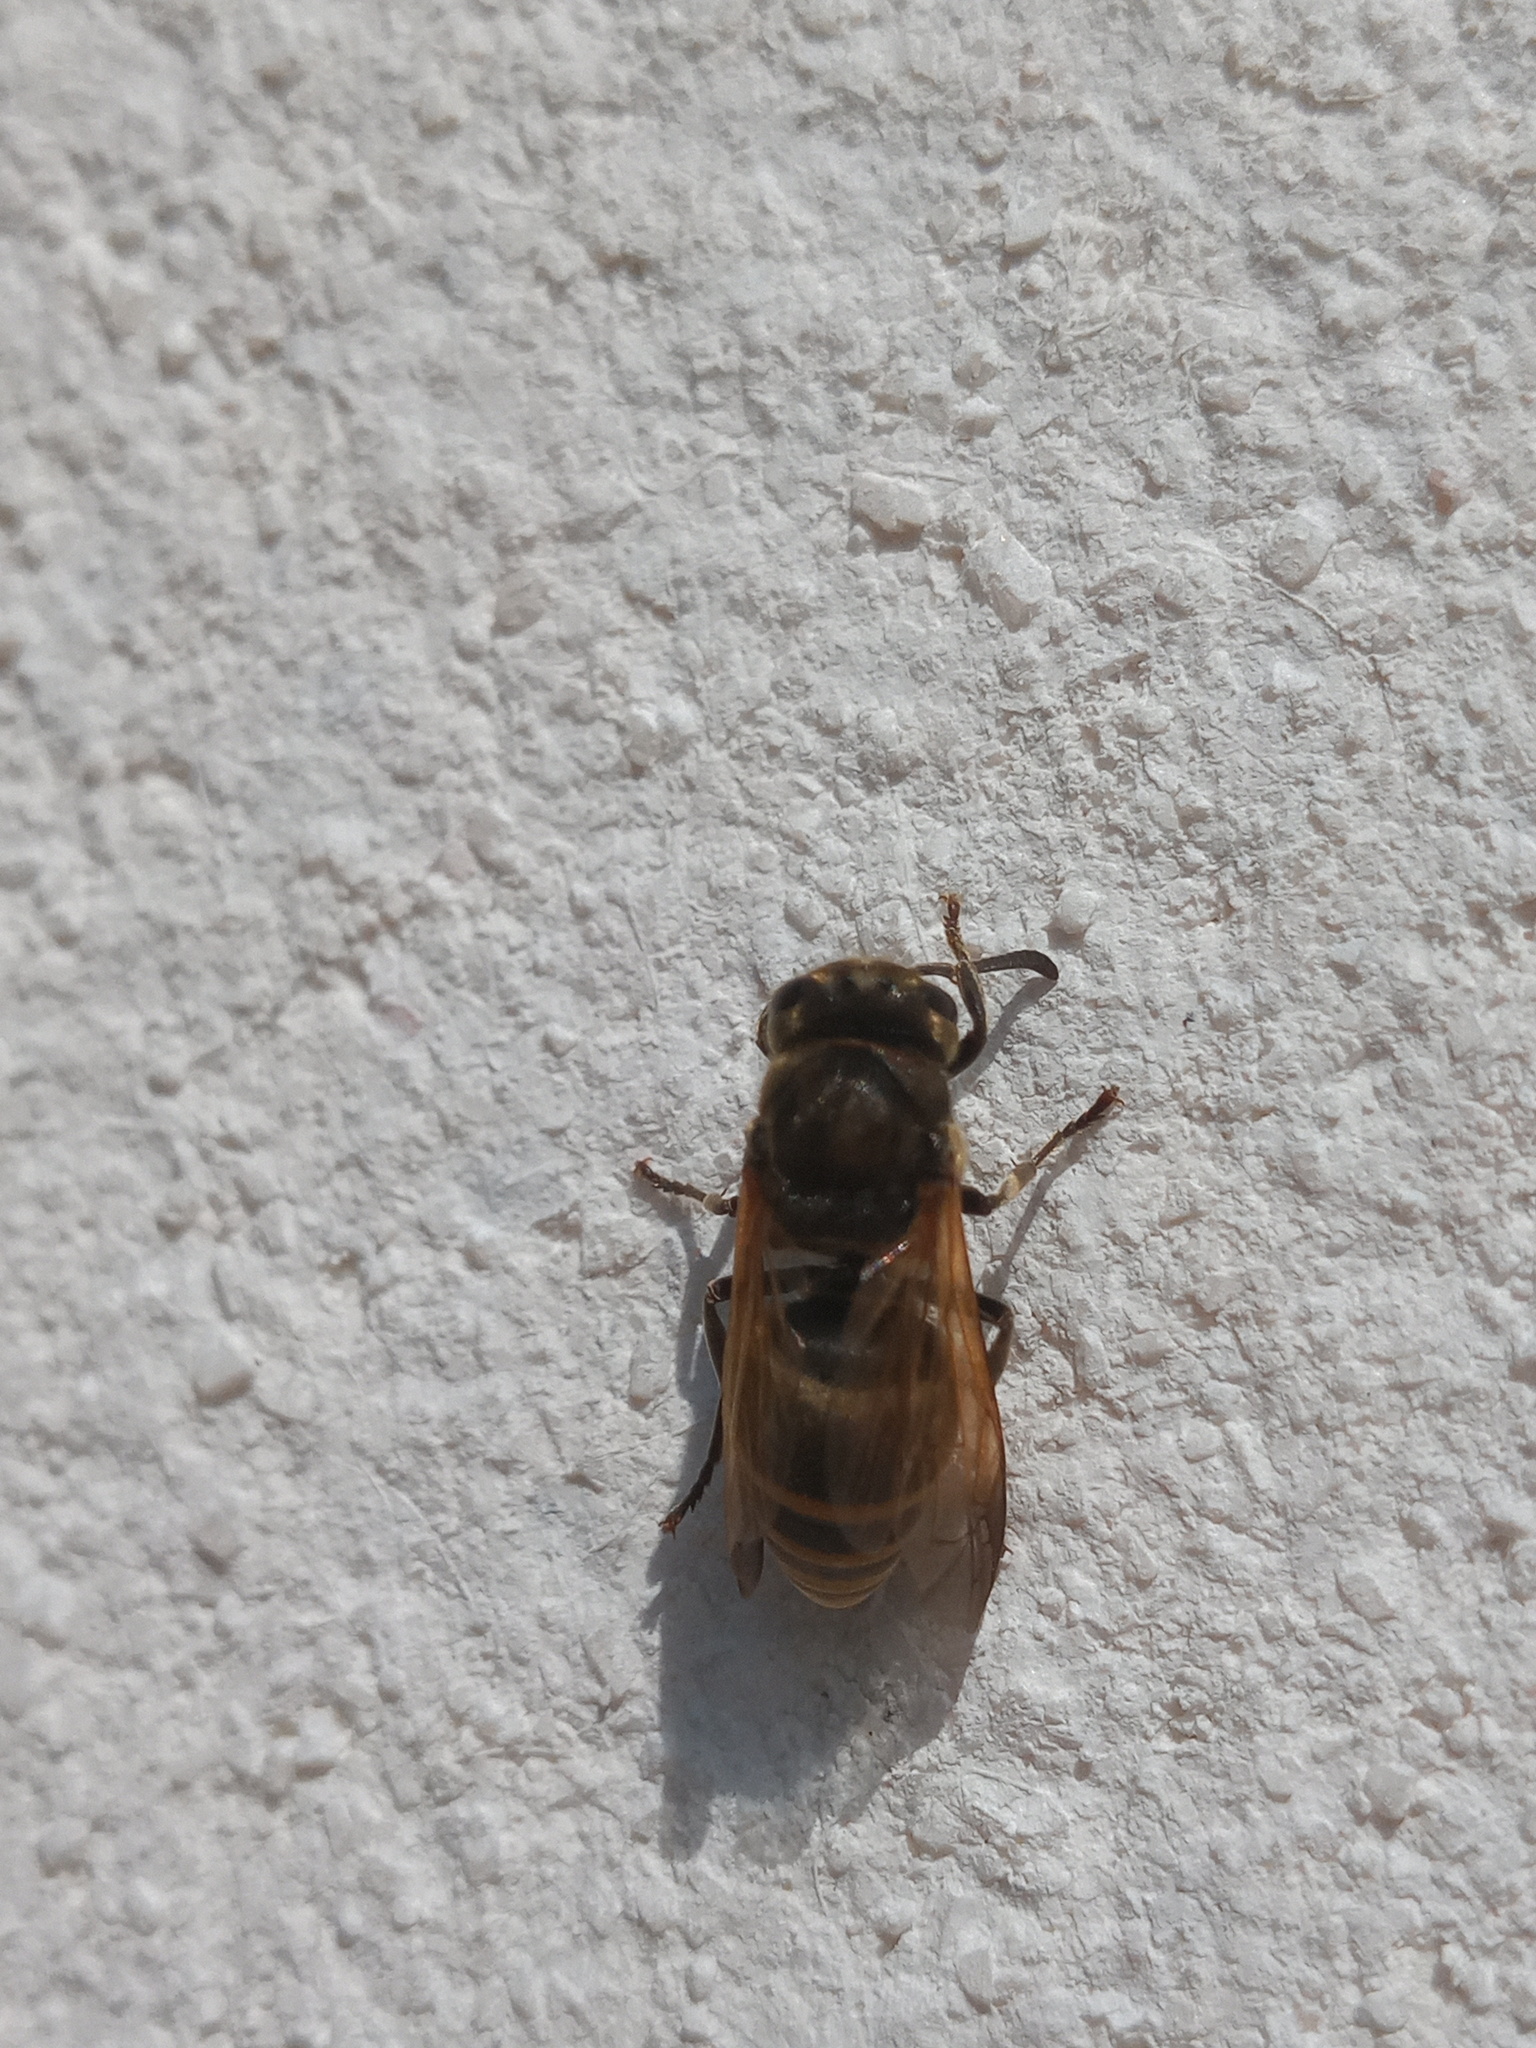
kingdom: Animalia
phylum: Arthropoda
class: Insecta
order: Hymenoptera
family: Vespidae
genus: Brachygastra
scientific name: Brachygastra mellifica
